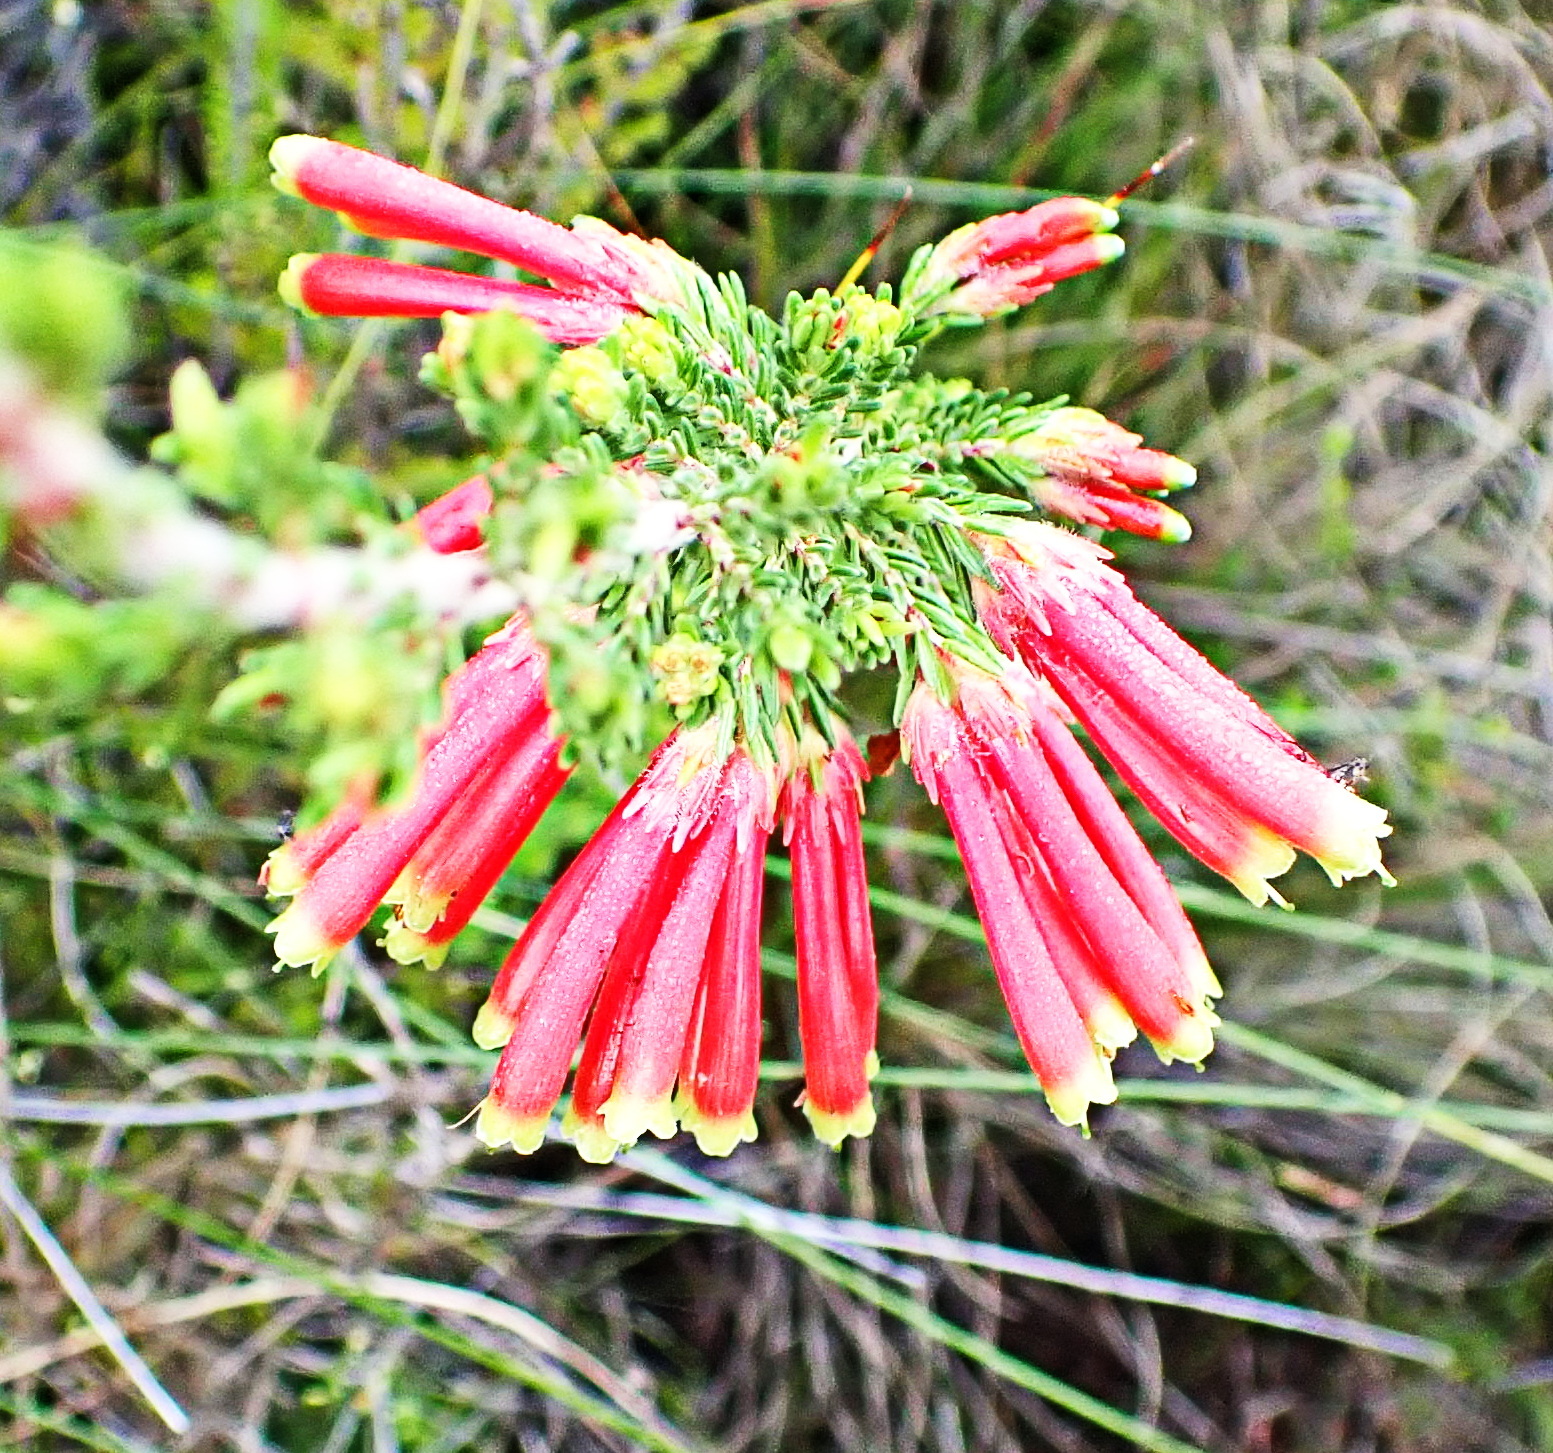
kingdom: Plantae
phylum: Tracheophyta
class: Magnoliopsida
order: Ericales
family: Ericaceae
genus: Erica
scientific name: Erica discolor
